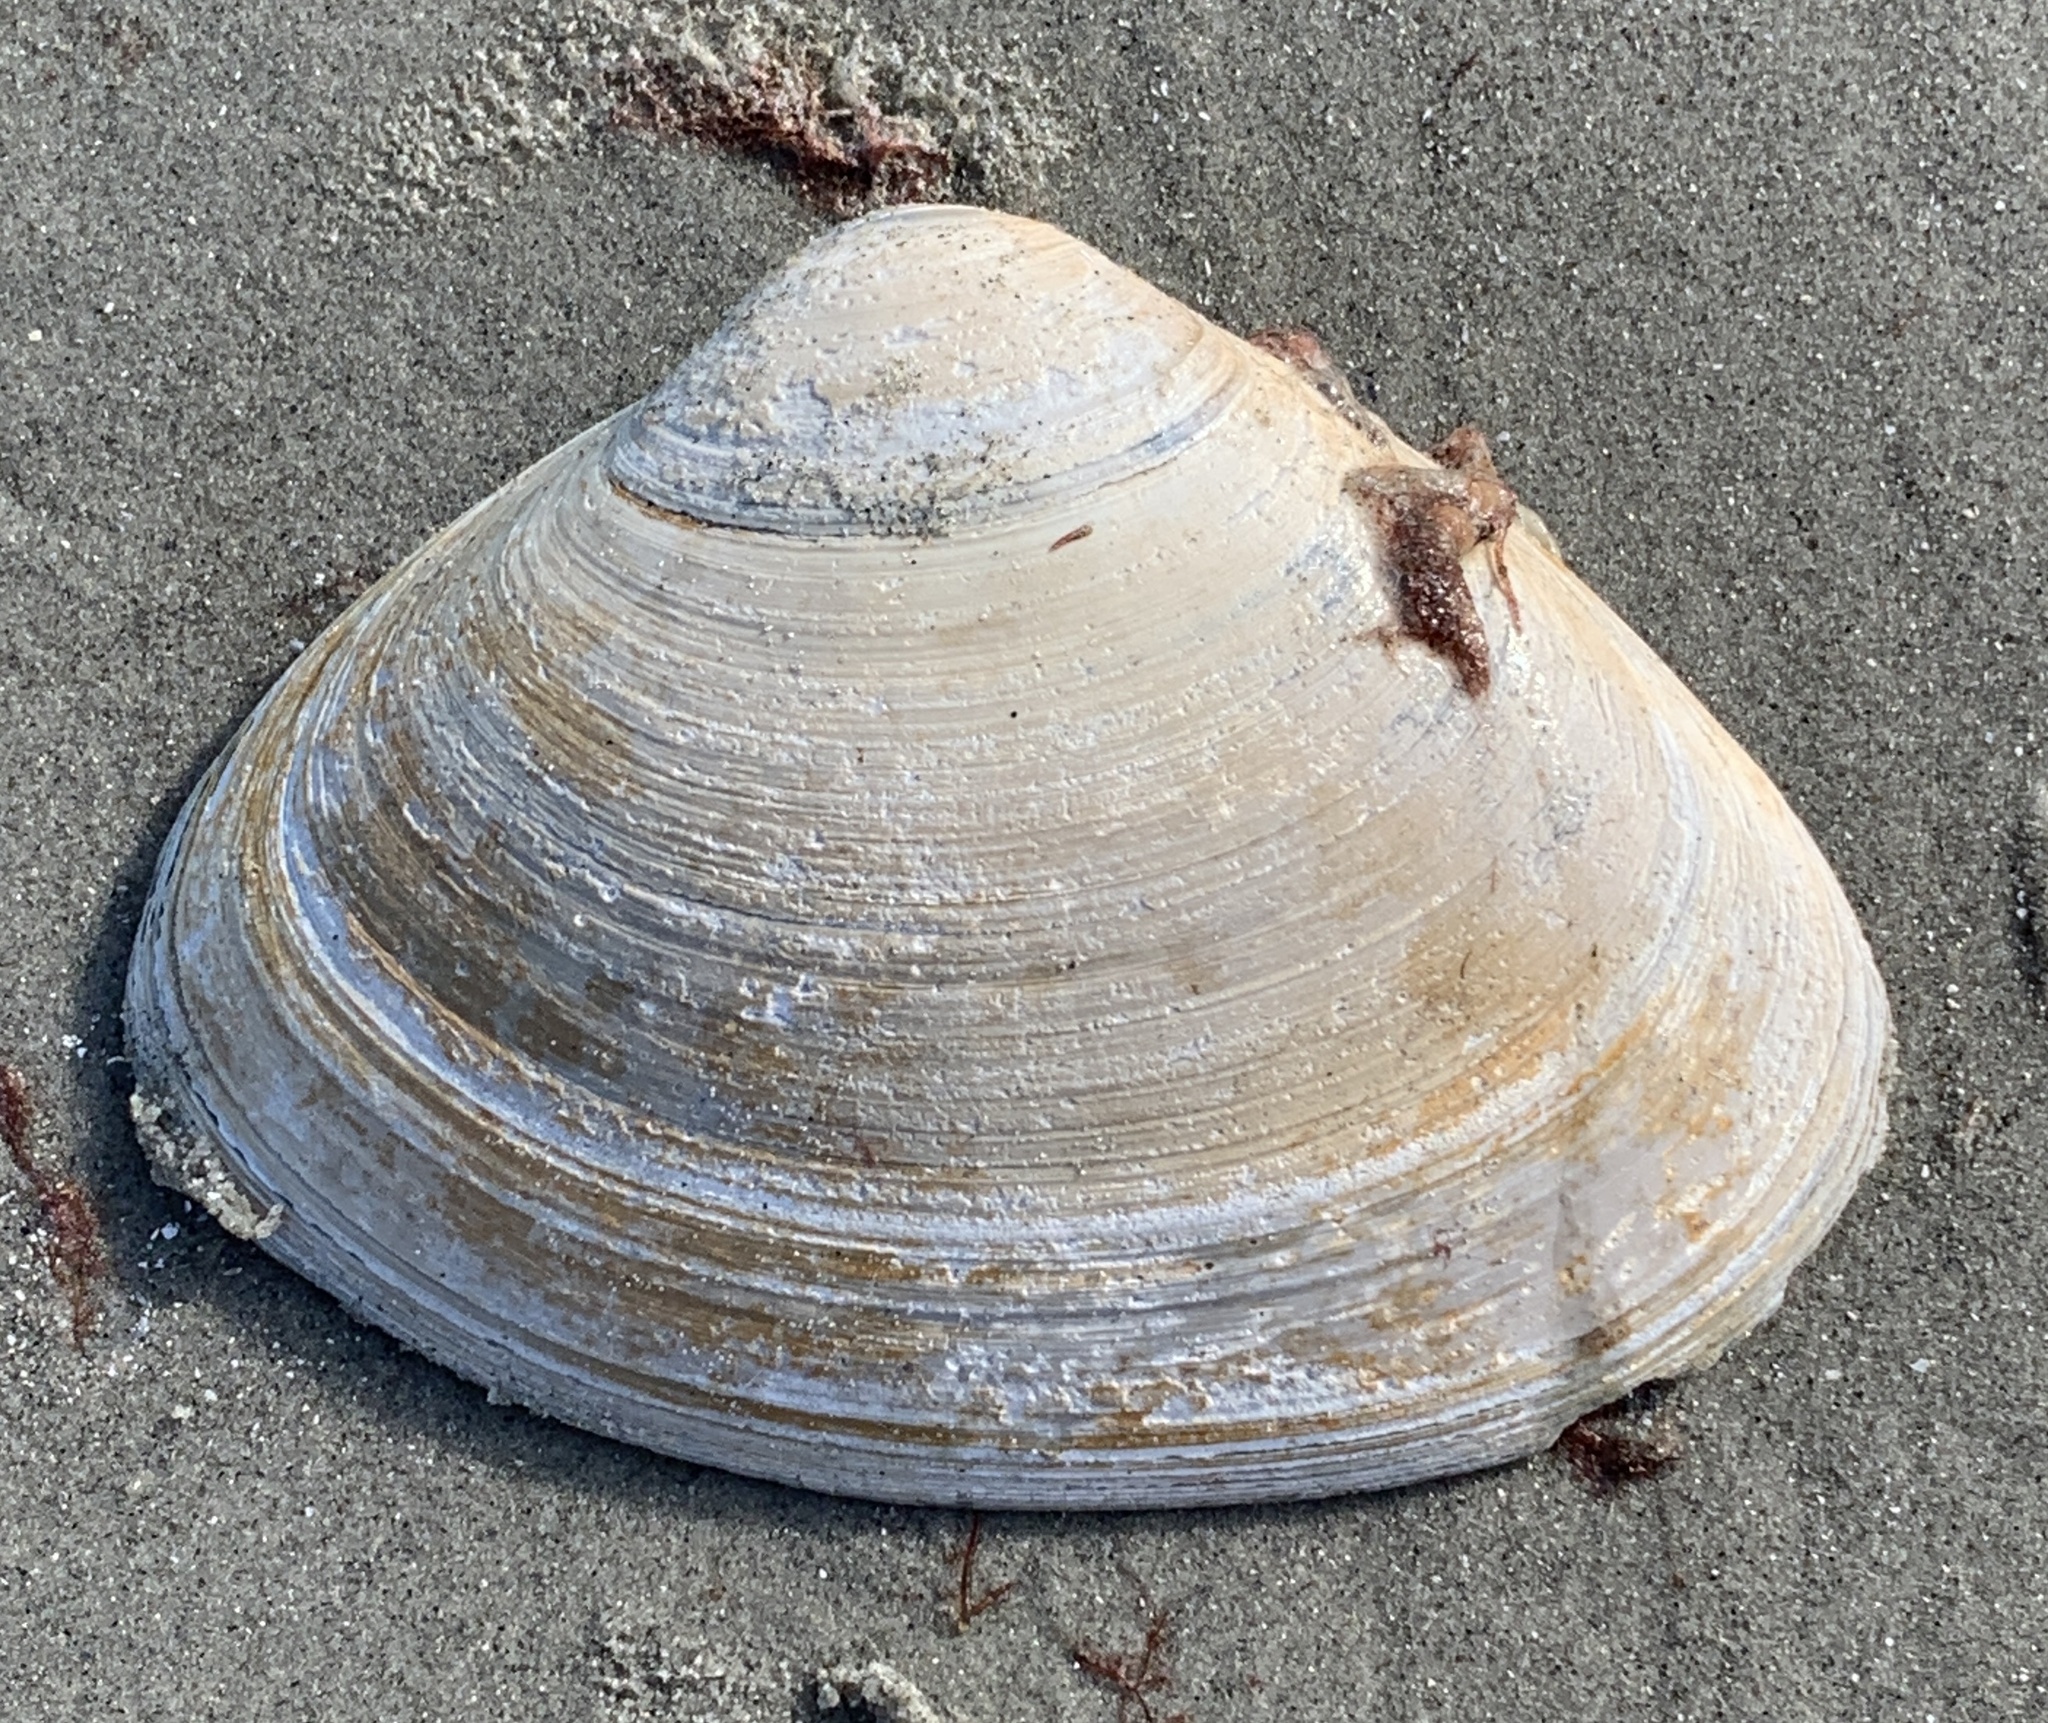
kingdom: Animalia
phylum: Mollusca
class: Bivalvia
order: Venerida
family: Mactridae
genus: Spisula
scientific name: Spisula solidissima
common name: Atlantic surf clam
